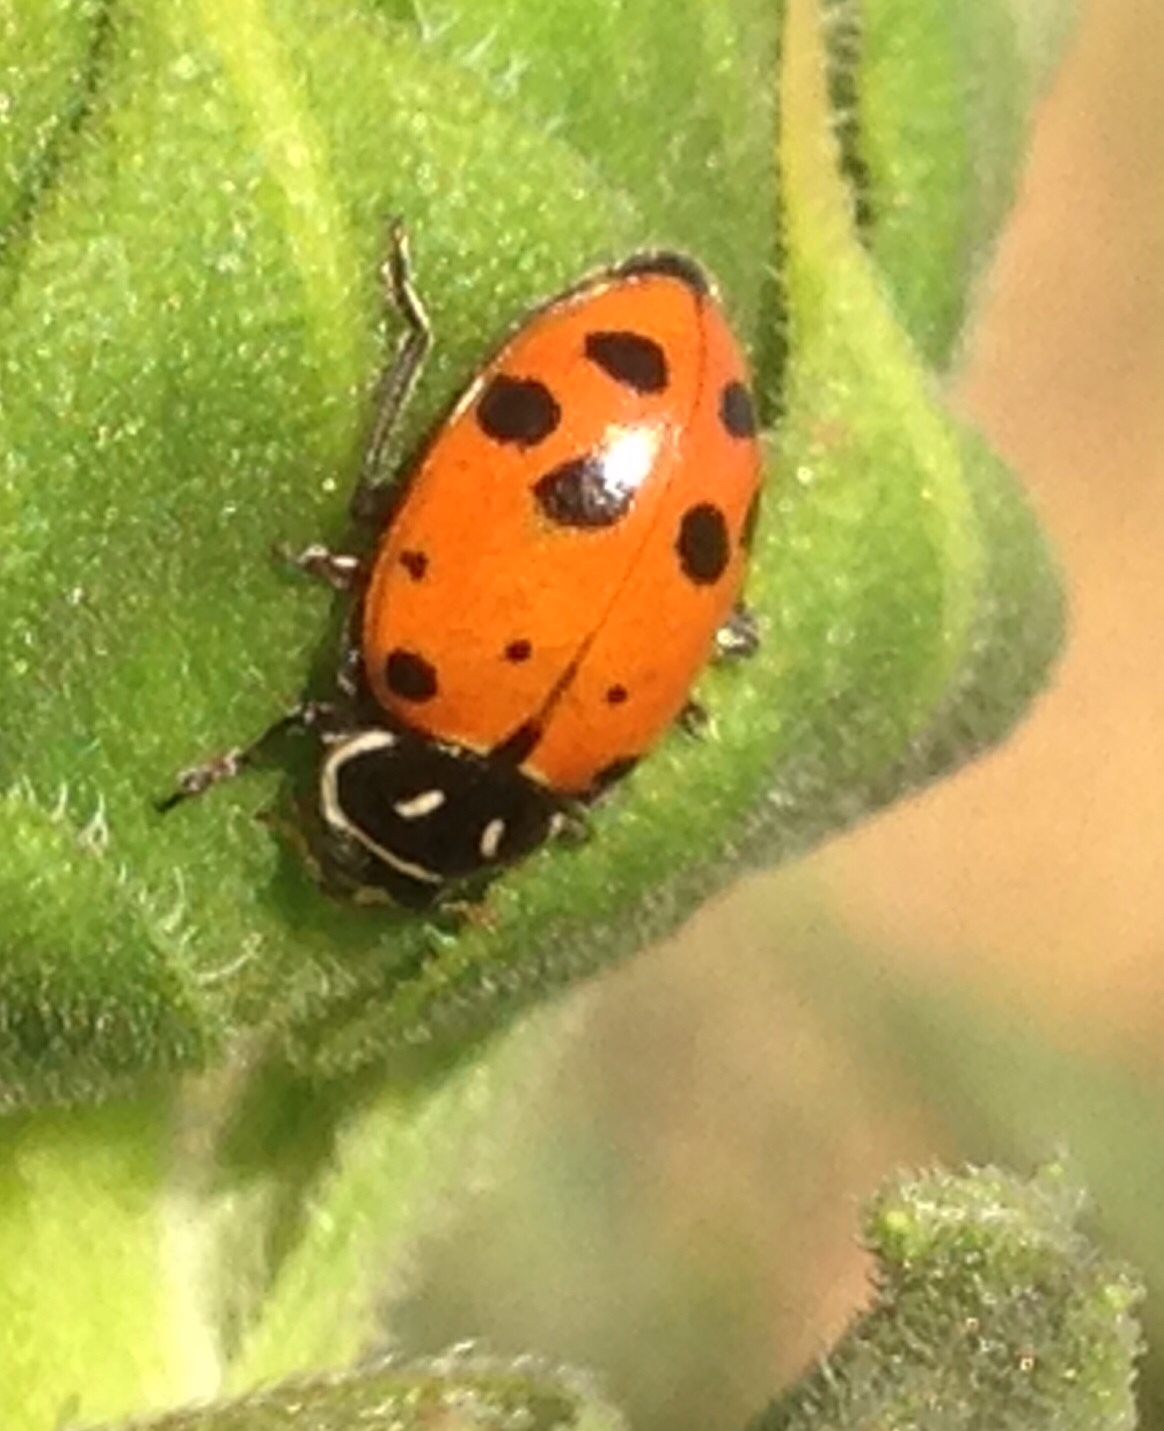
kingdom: Animalia
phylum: Arthropoda
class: Insecta
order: Coleoptera
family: Coccinellidae
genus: Hippodamia
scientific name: Hippodamia convergens
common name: Convergent lady beetle
